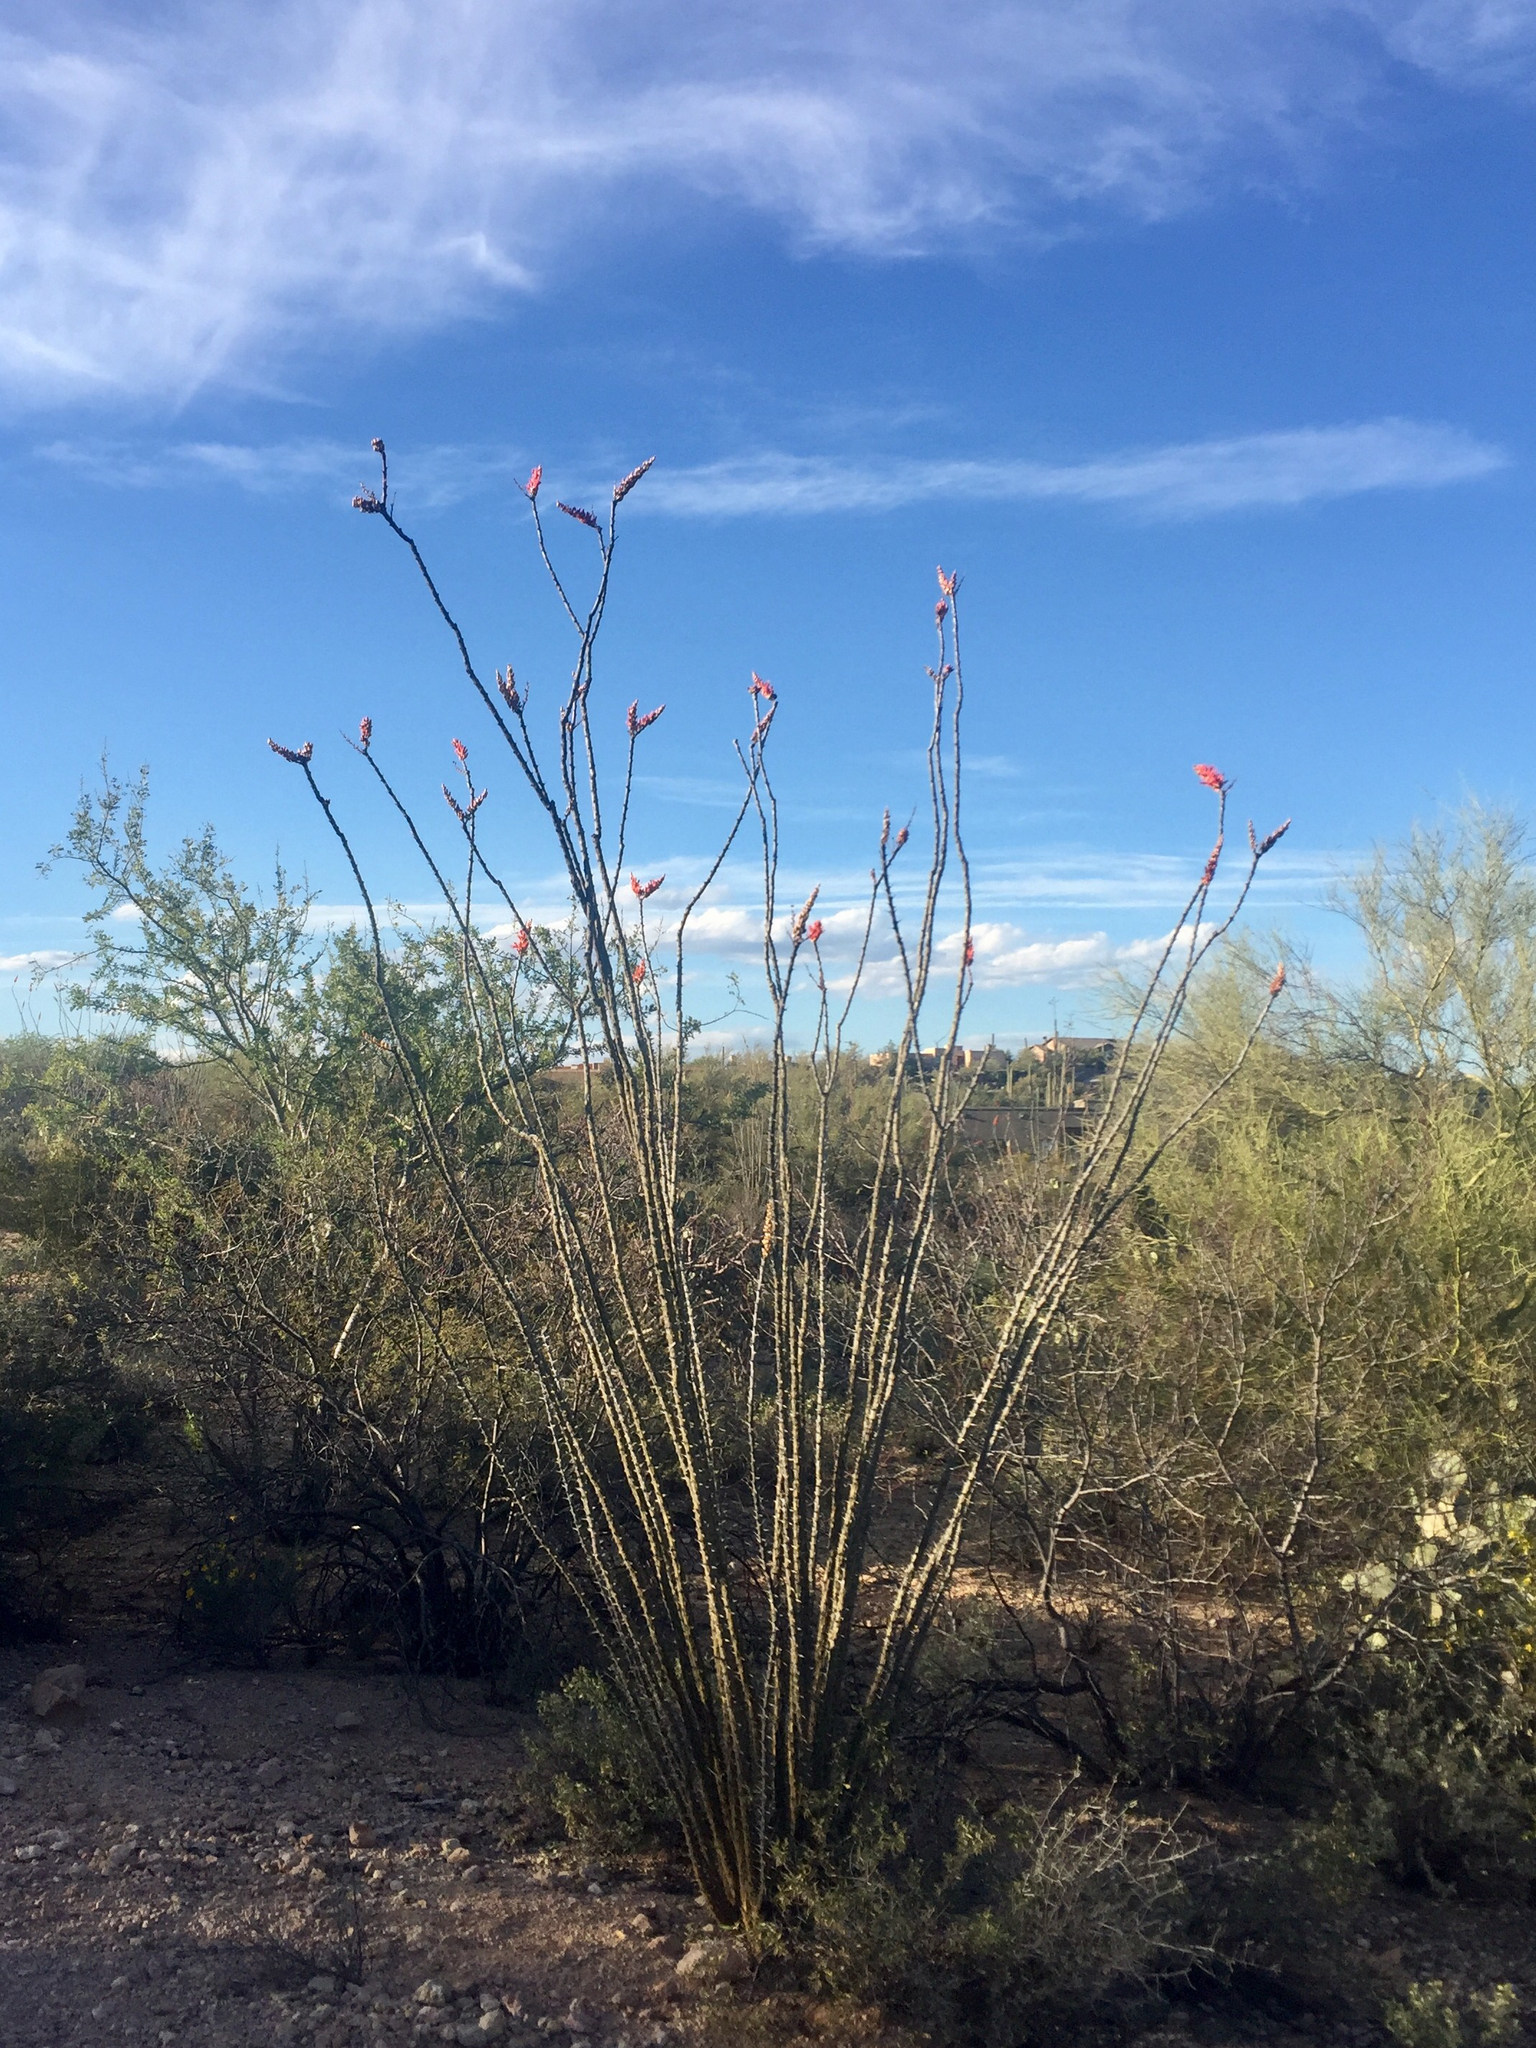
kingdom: Plantae
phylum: Tracheophyta
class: Magnoliopsida
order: Ericales
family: Fouquieriaceae
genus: Fouquieria
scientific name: Fouquieria splendens
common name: Vine-cactus
